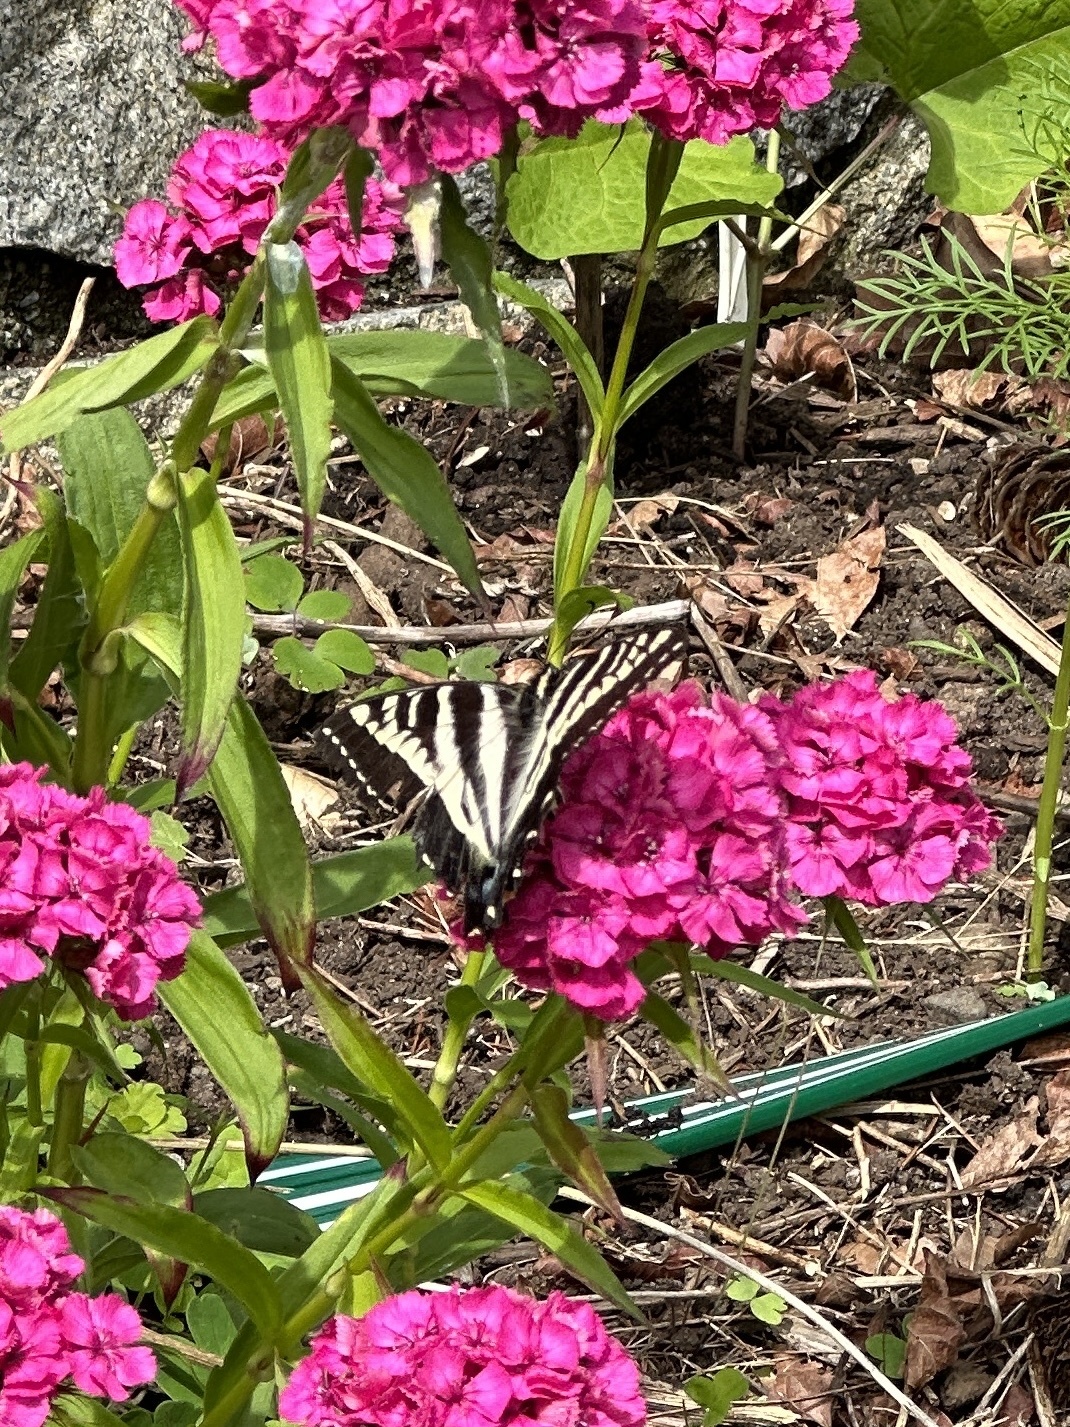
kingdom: Animalia
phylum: Arthropoda
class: Insecta
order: Lepidoptera
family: Papilionidae
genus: Papilio
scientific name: Papilio eurymedon
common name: Pale tiger swallowtail
